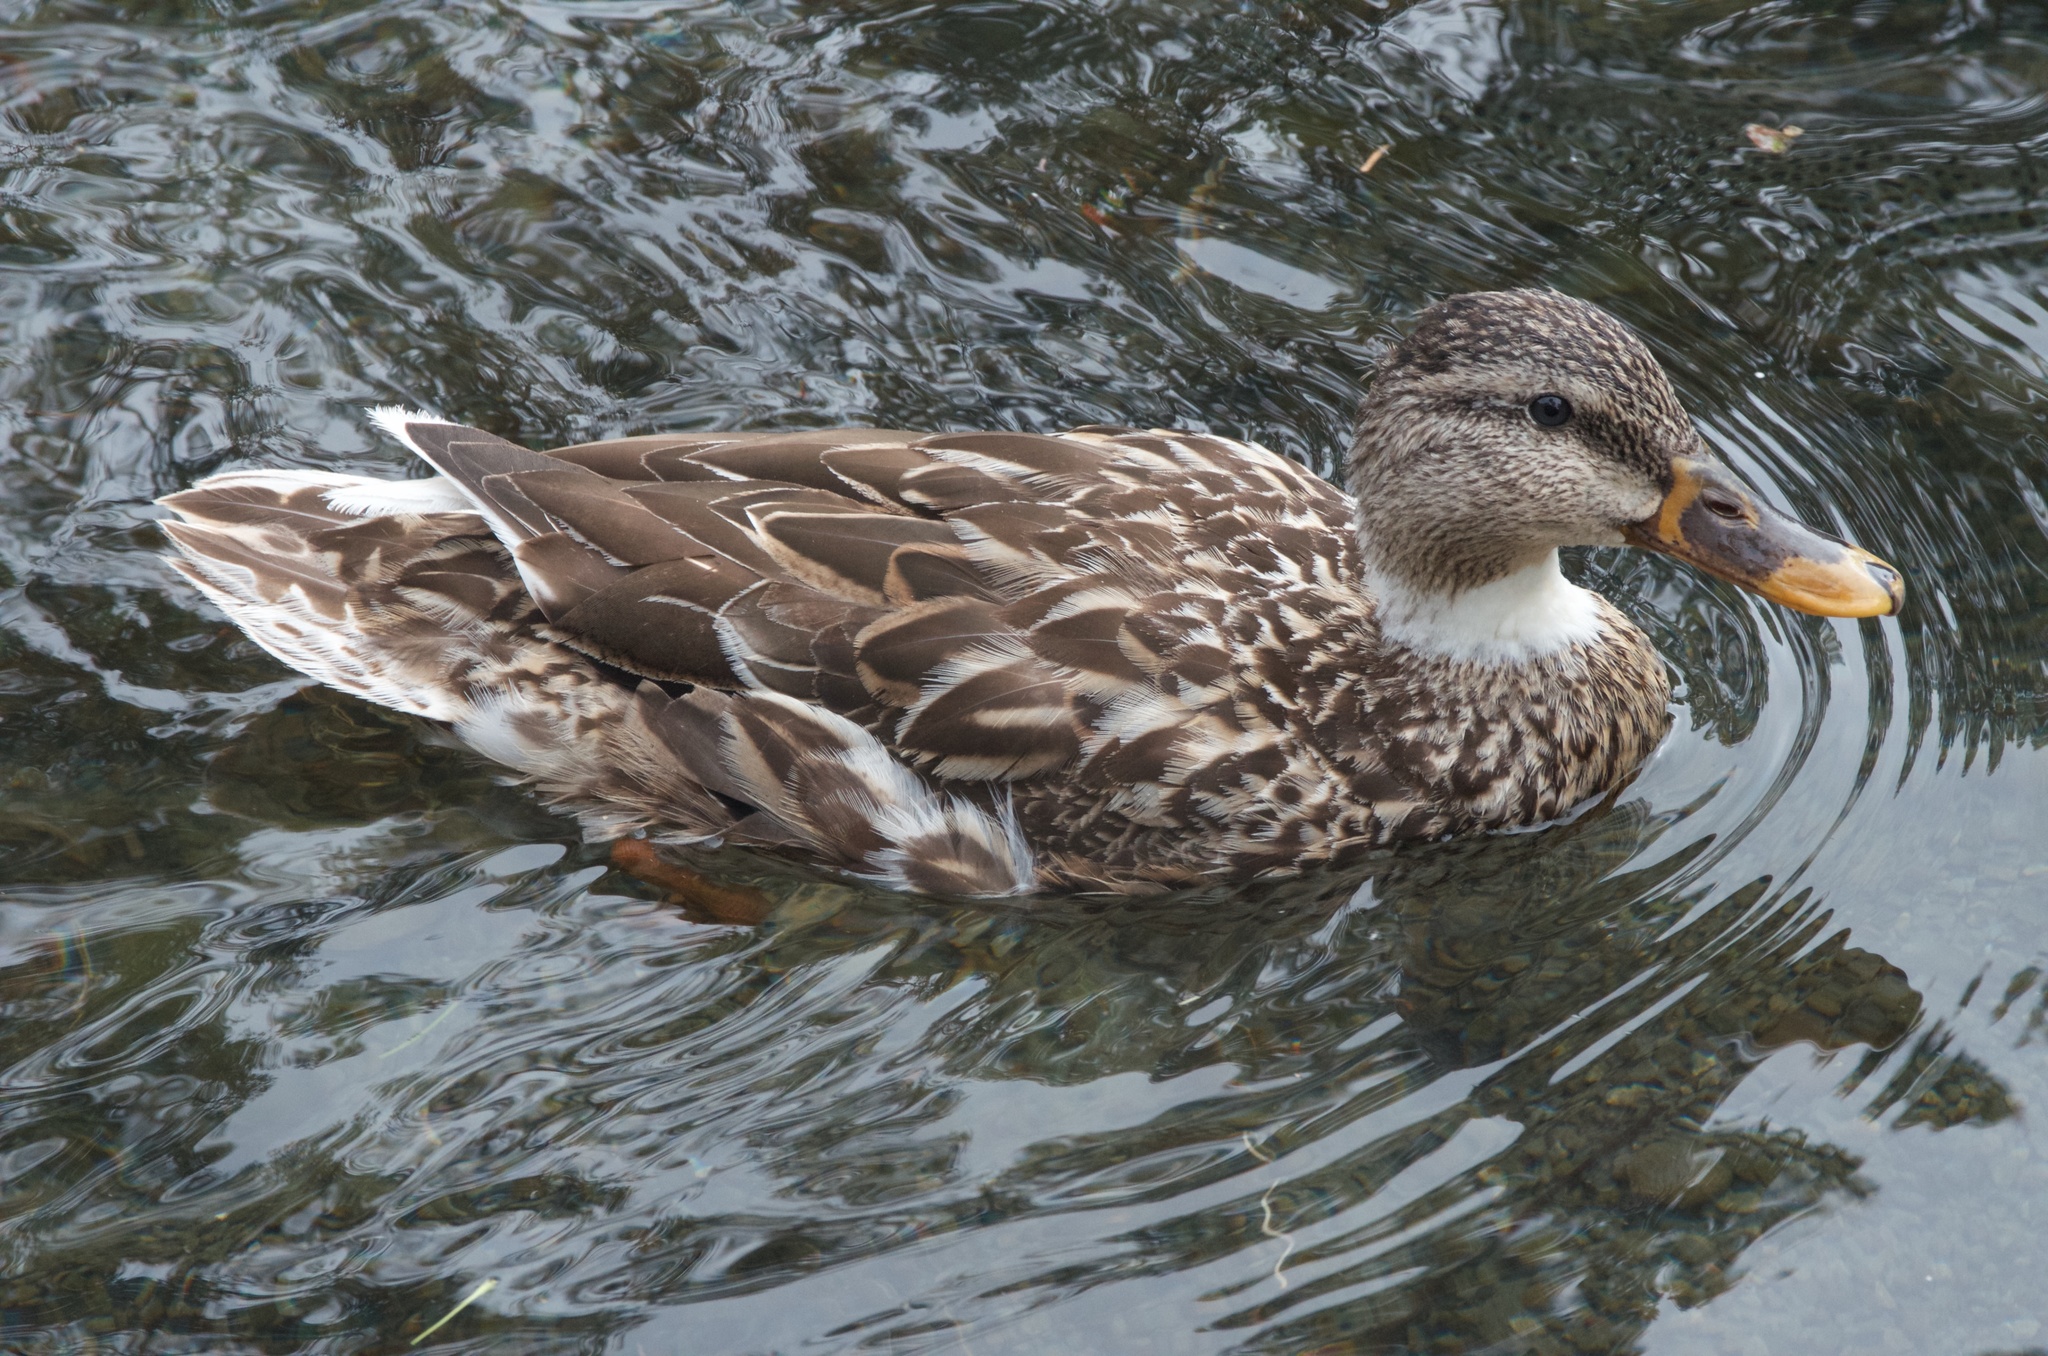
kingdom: Animalia
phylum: Chordata
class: Aves
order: Anseriformes
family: Anatidae
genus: Anas
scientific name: Anas platyrhynchos
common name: Mallard
